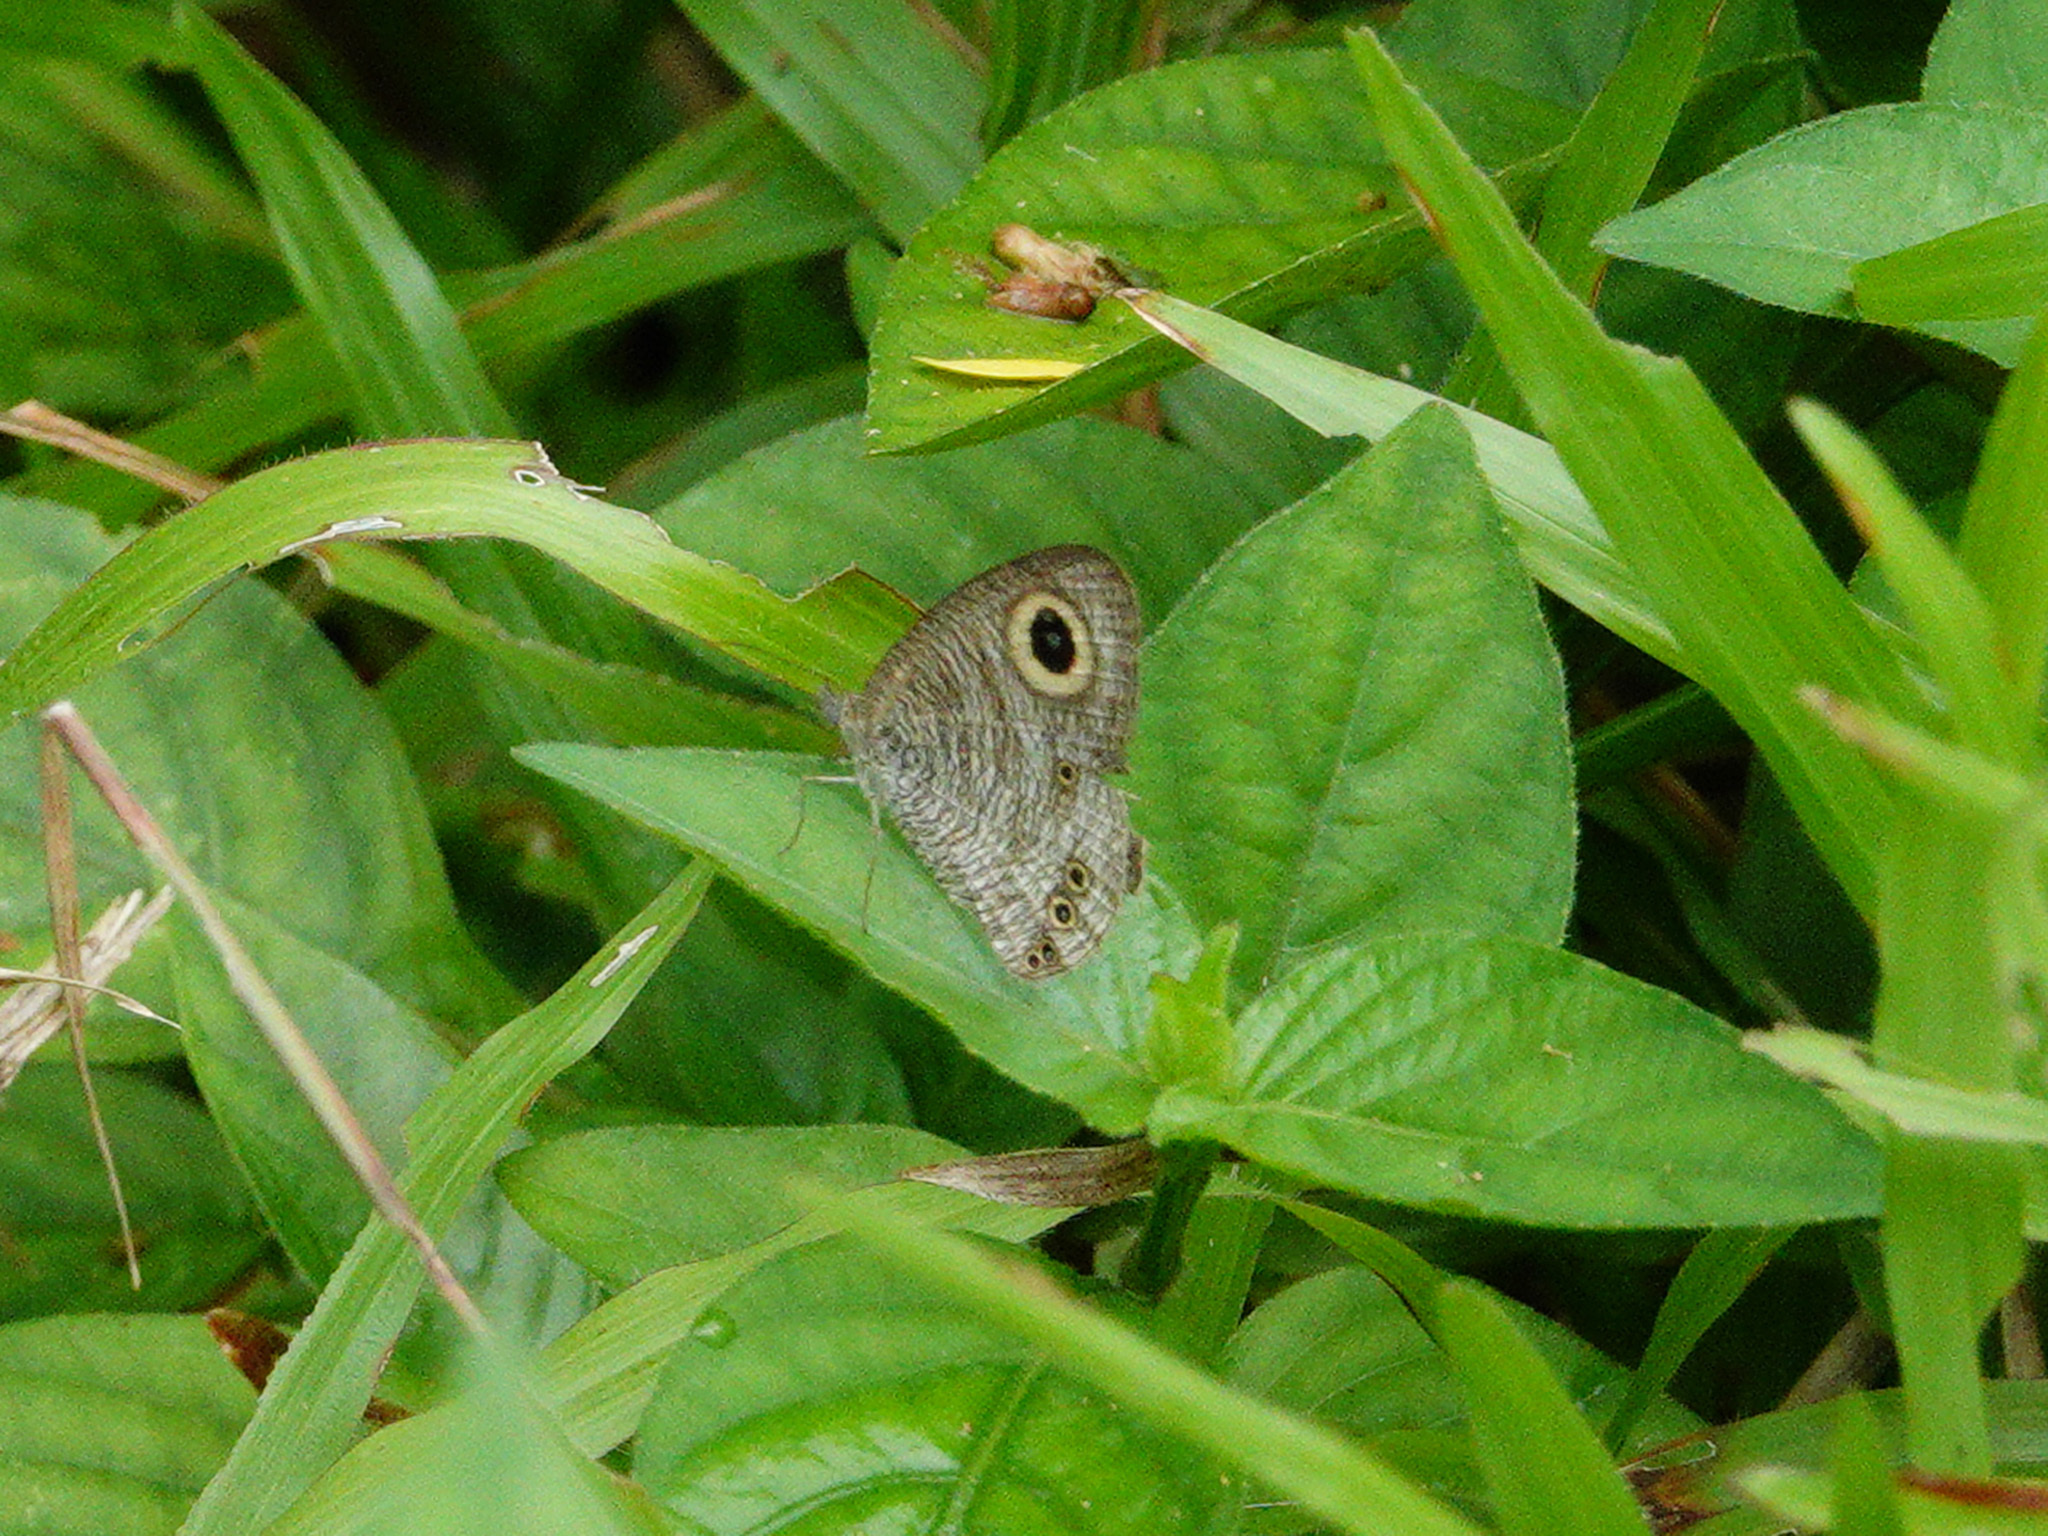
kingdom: Animalia
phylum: Arthropoda
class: Insecta
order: Lepidoptera
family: Nymphalidae
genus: Ypthima
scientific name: Ypthima baldus
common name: Common five-ring
